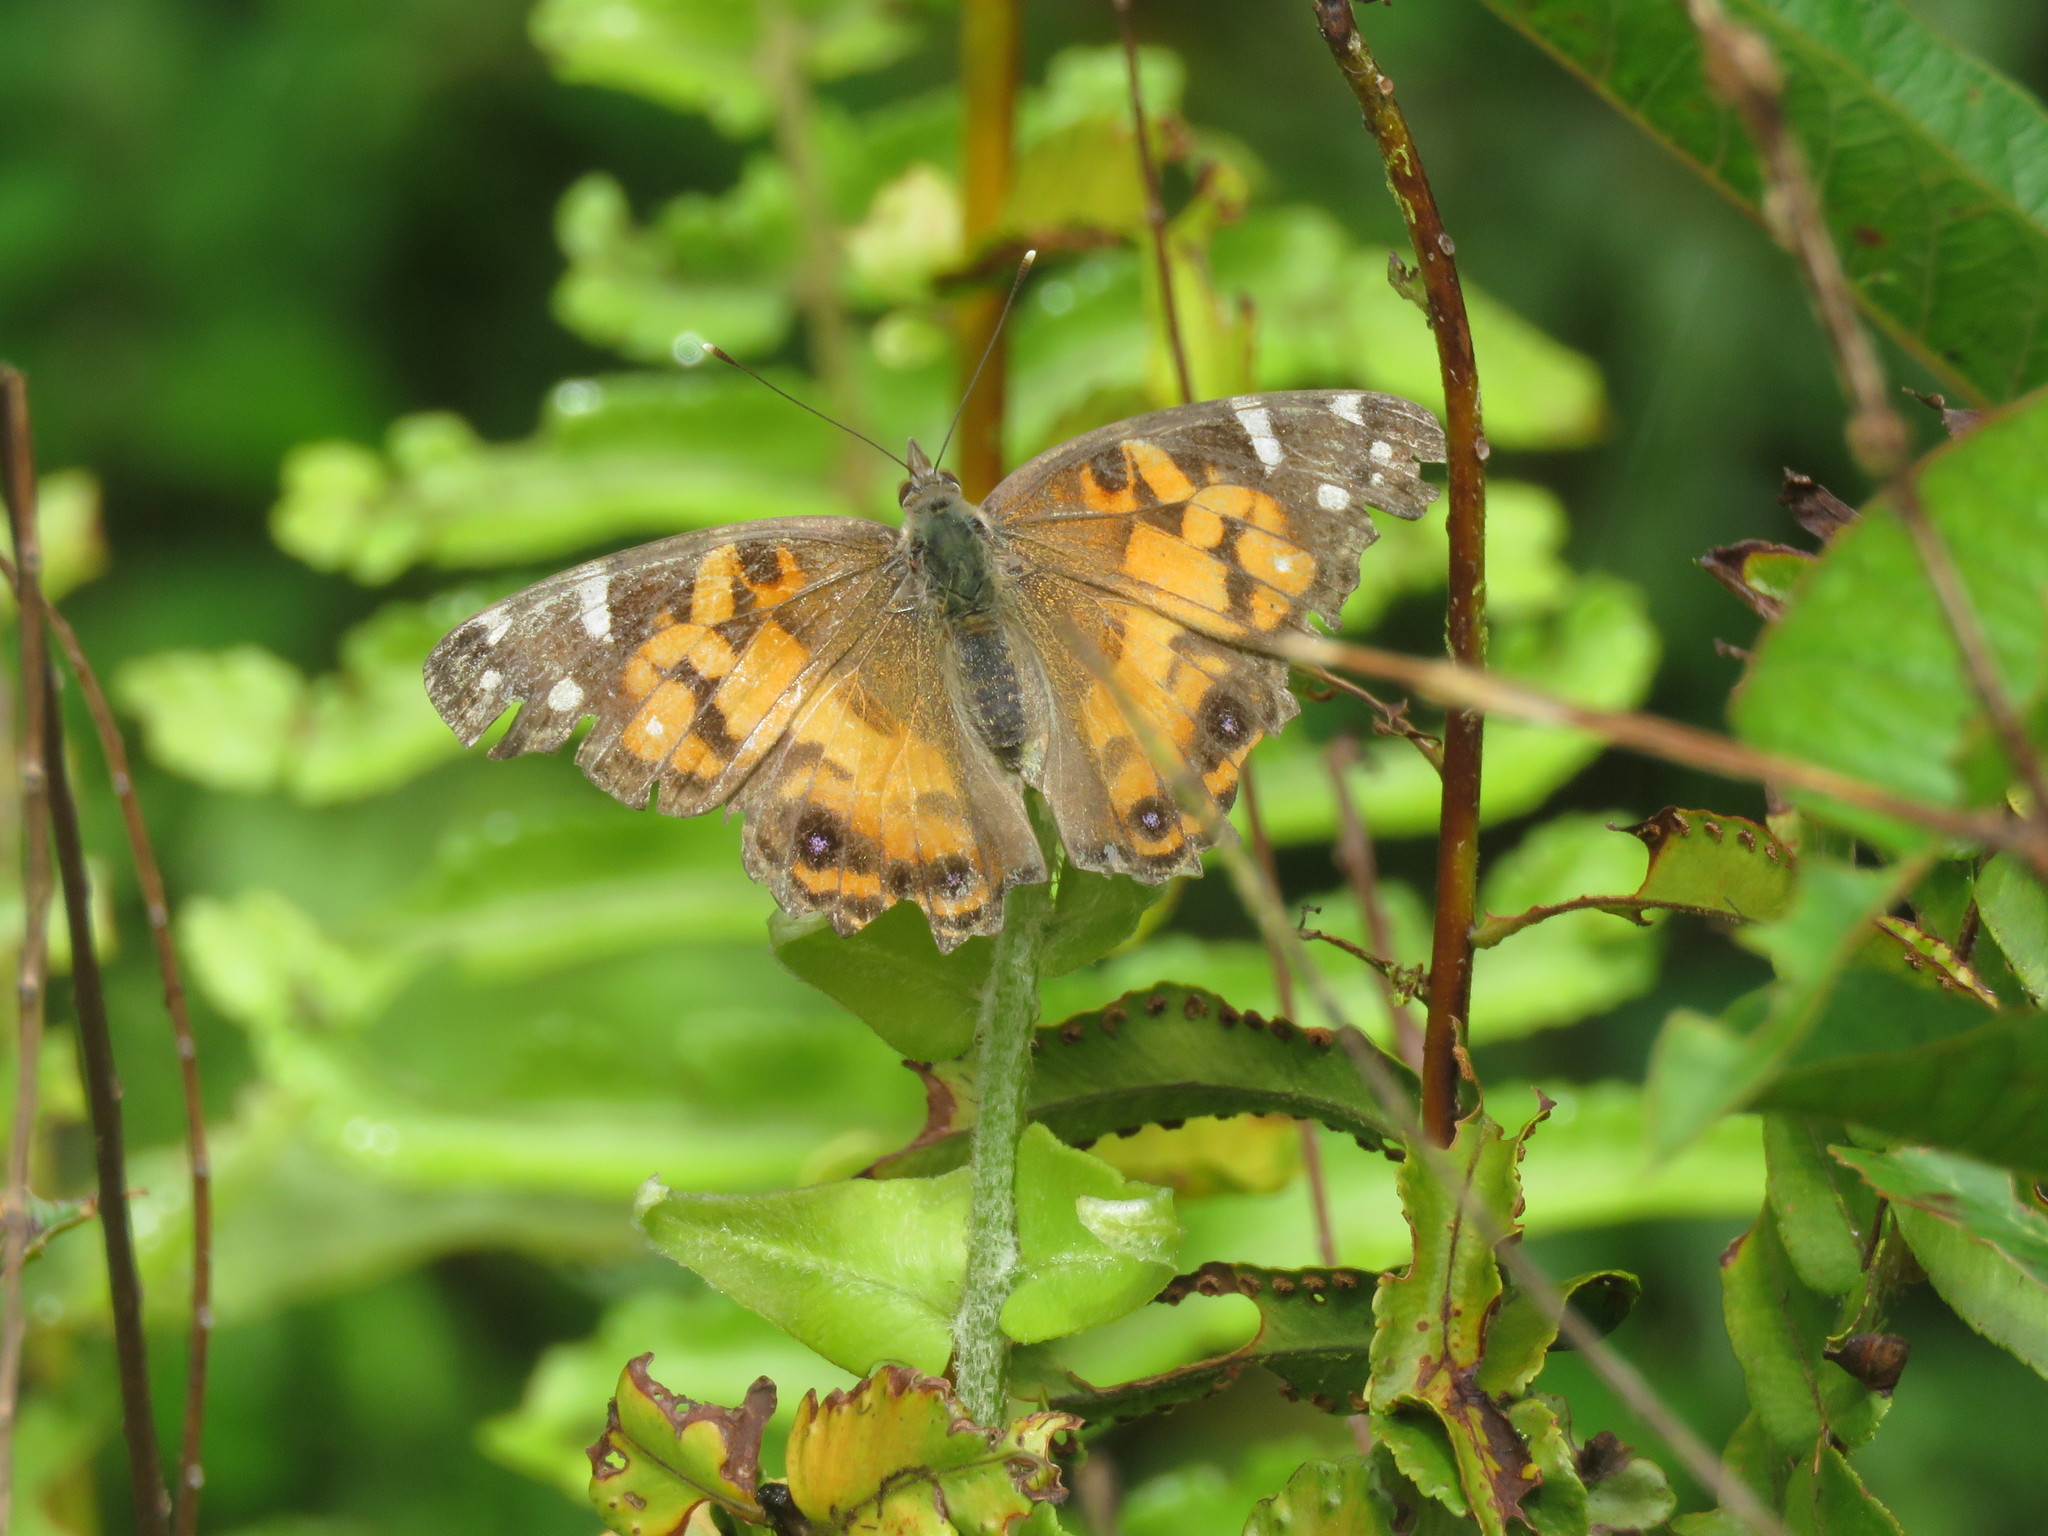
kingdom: Animalia
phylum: Arthropoda
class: Insecta
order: Lepidoptera
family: Nymphalidae
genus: Vanessa
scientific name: Vanessa virginiensis
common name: American lady
